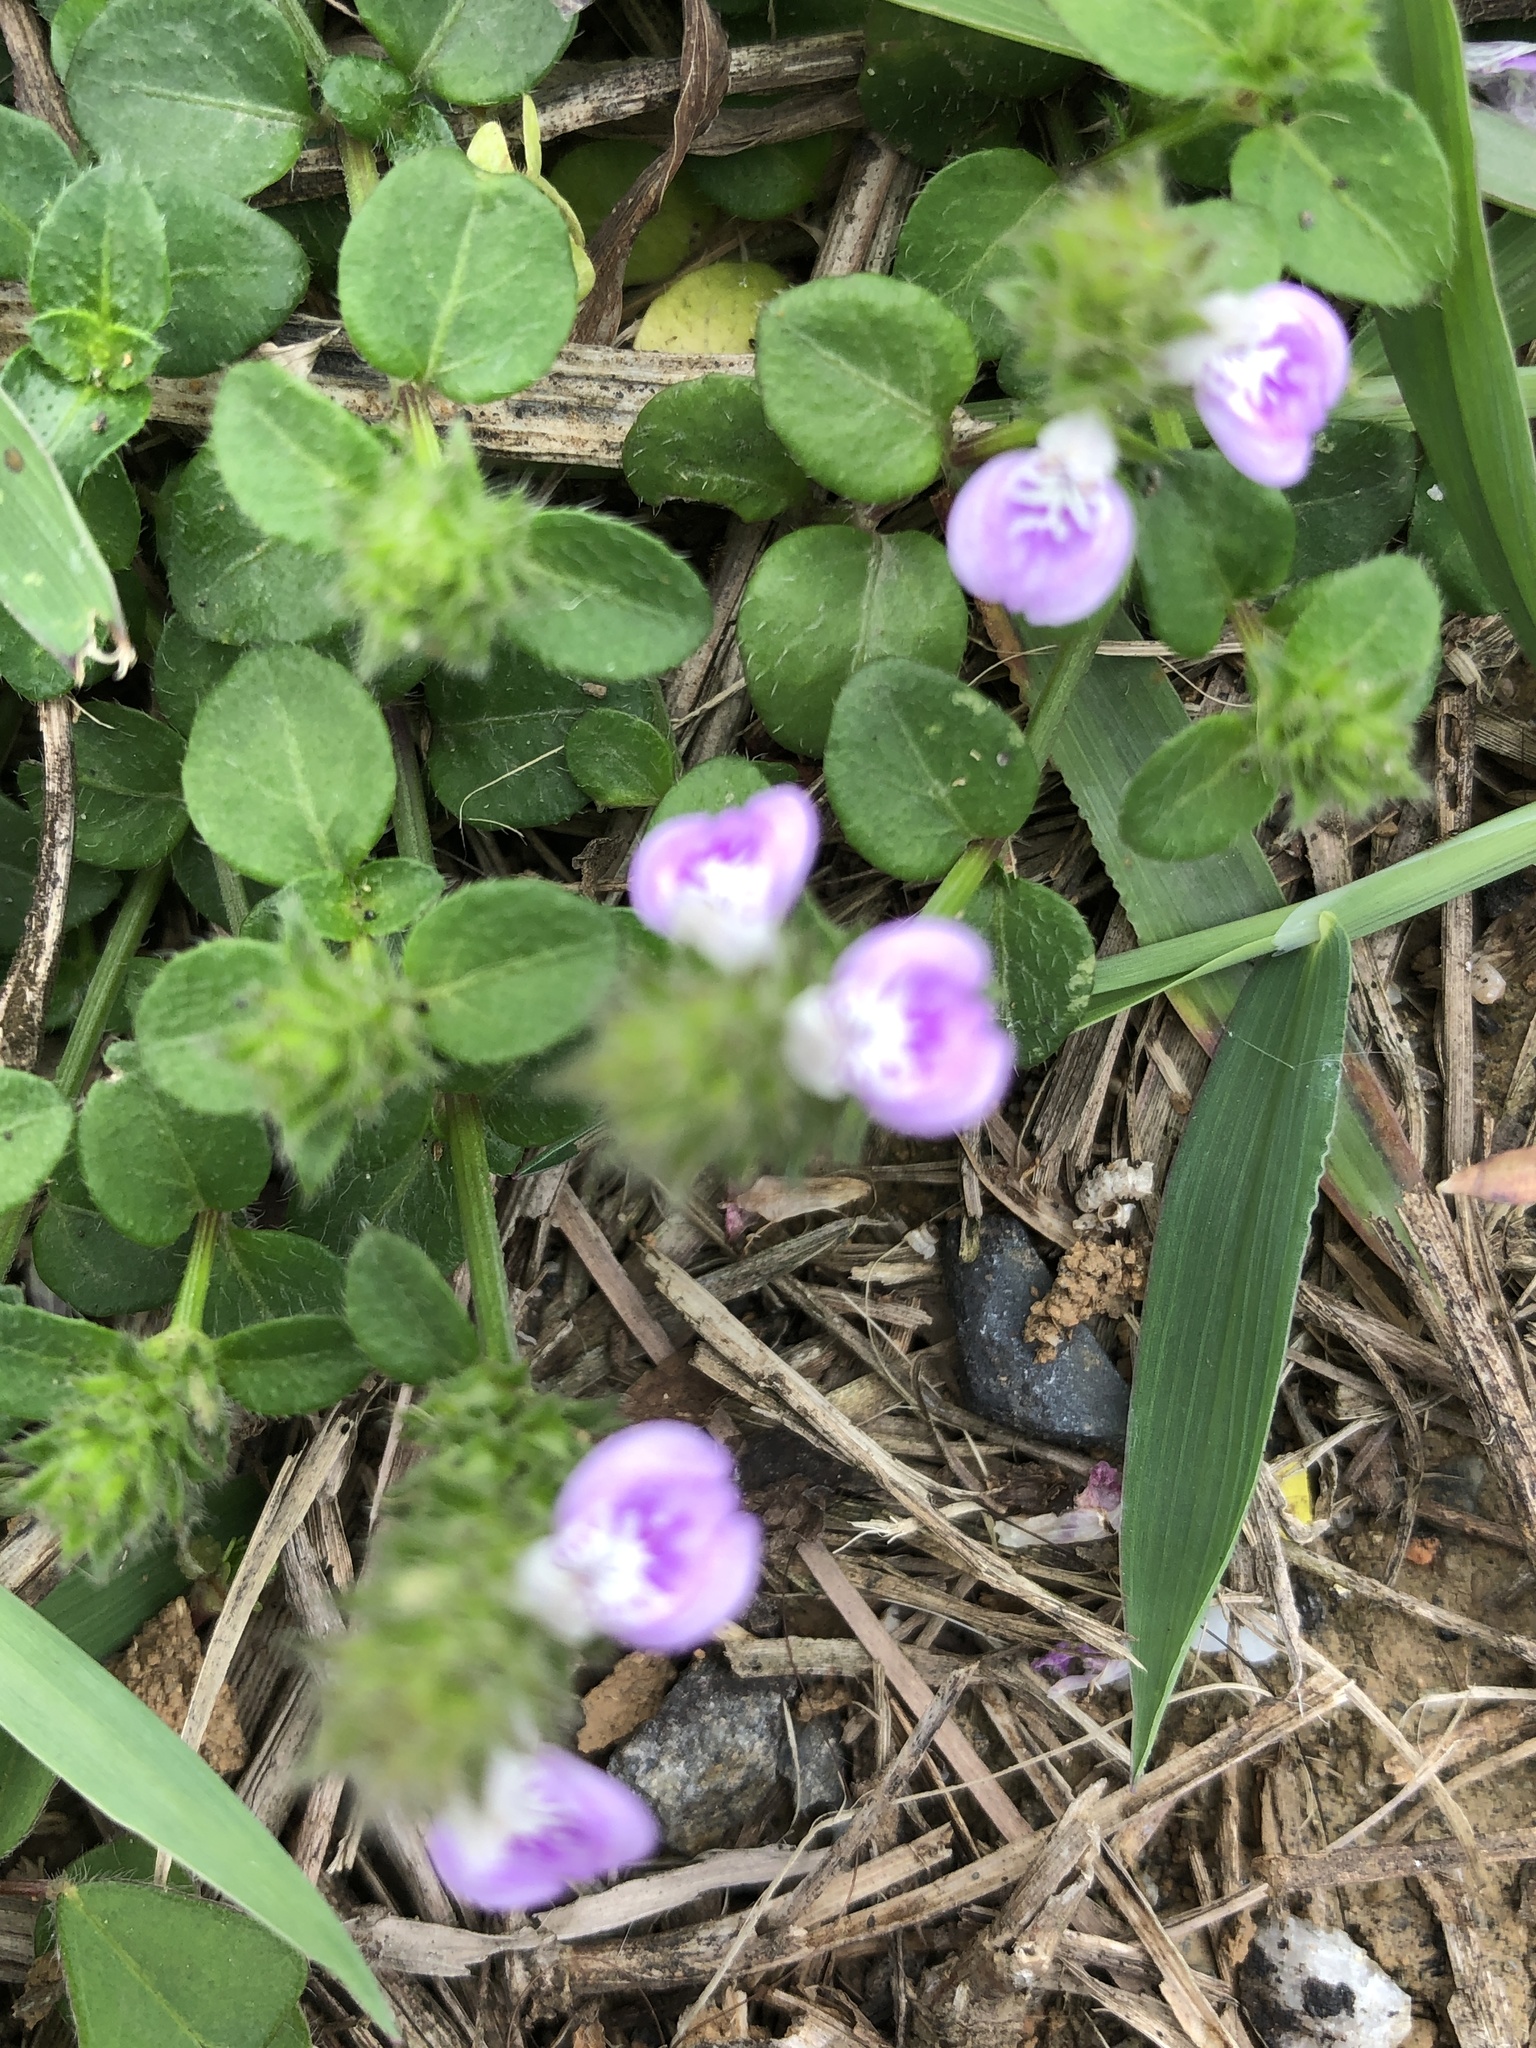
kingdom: Plantae
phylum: Tracheophyta
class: Magnoliopsida
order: Lamiales
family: Acanthaceae
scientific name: Acanthaceae
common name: Acanthaceae
